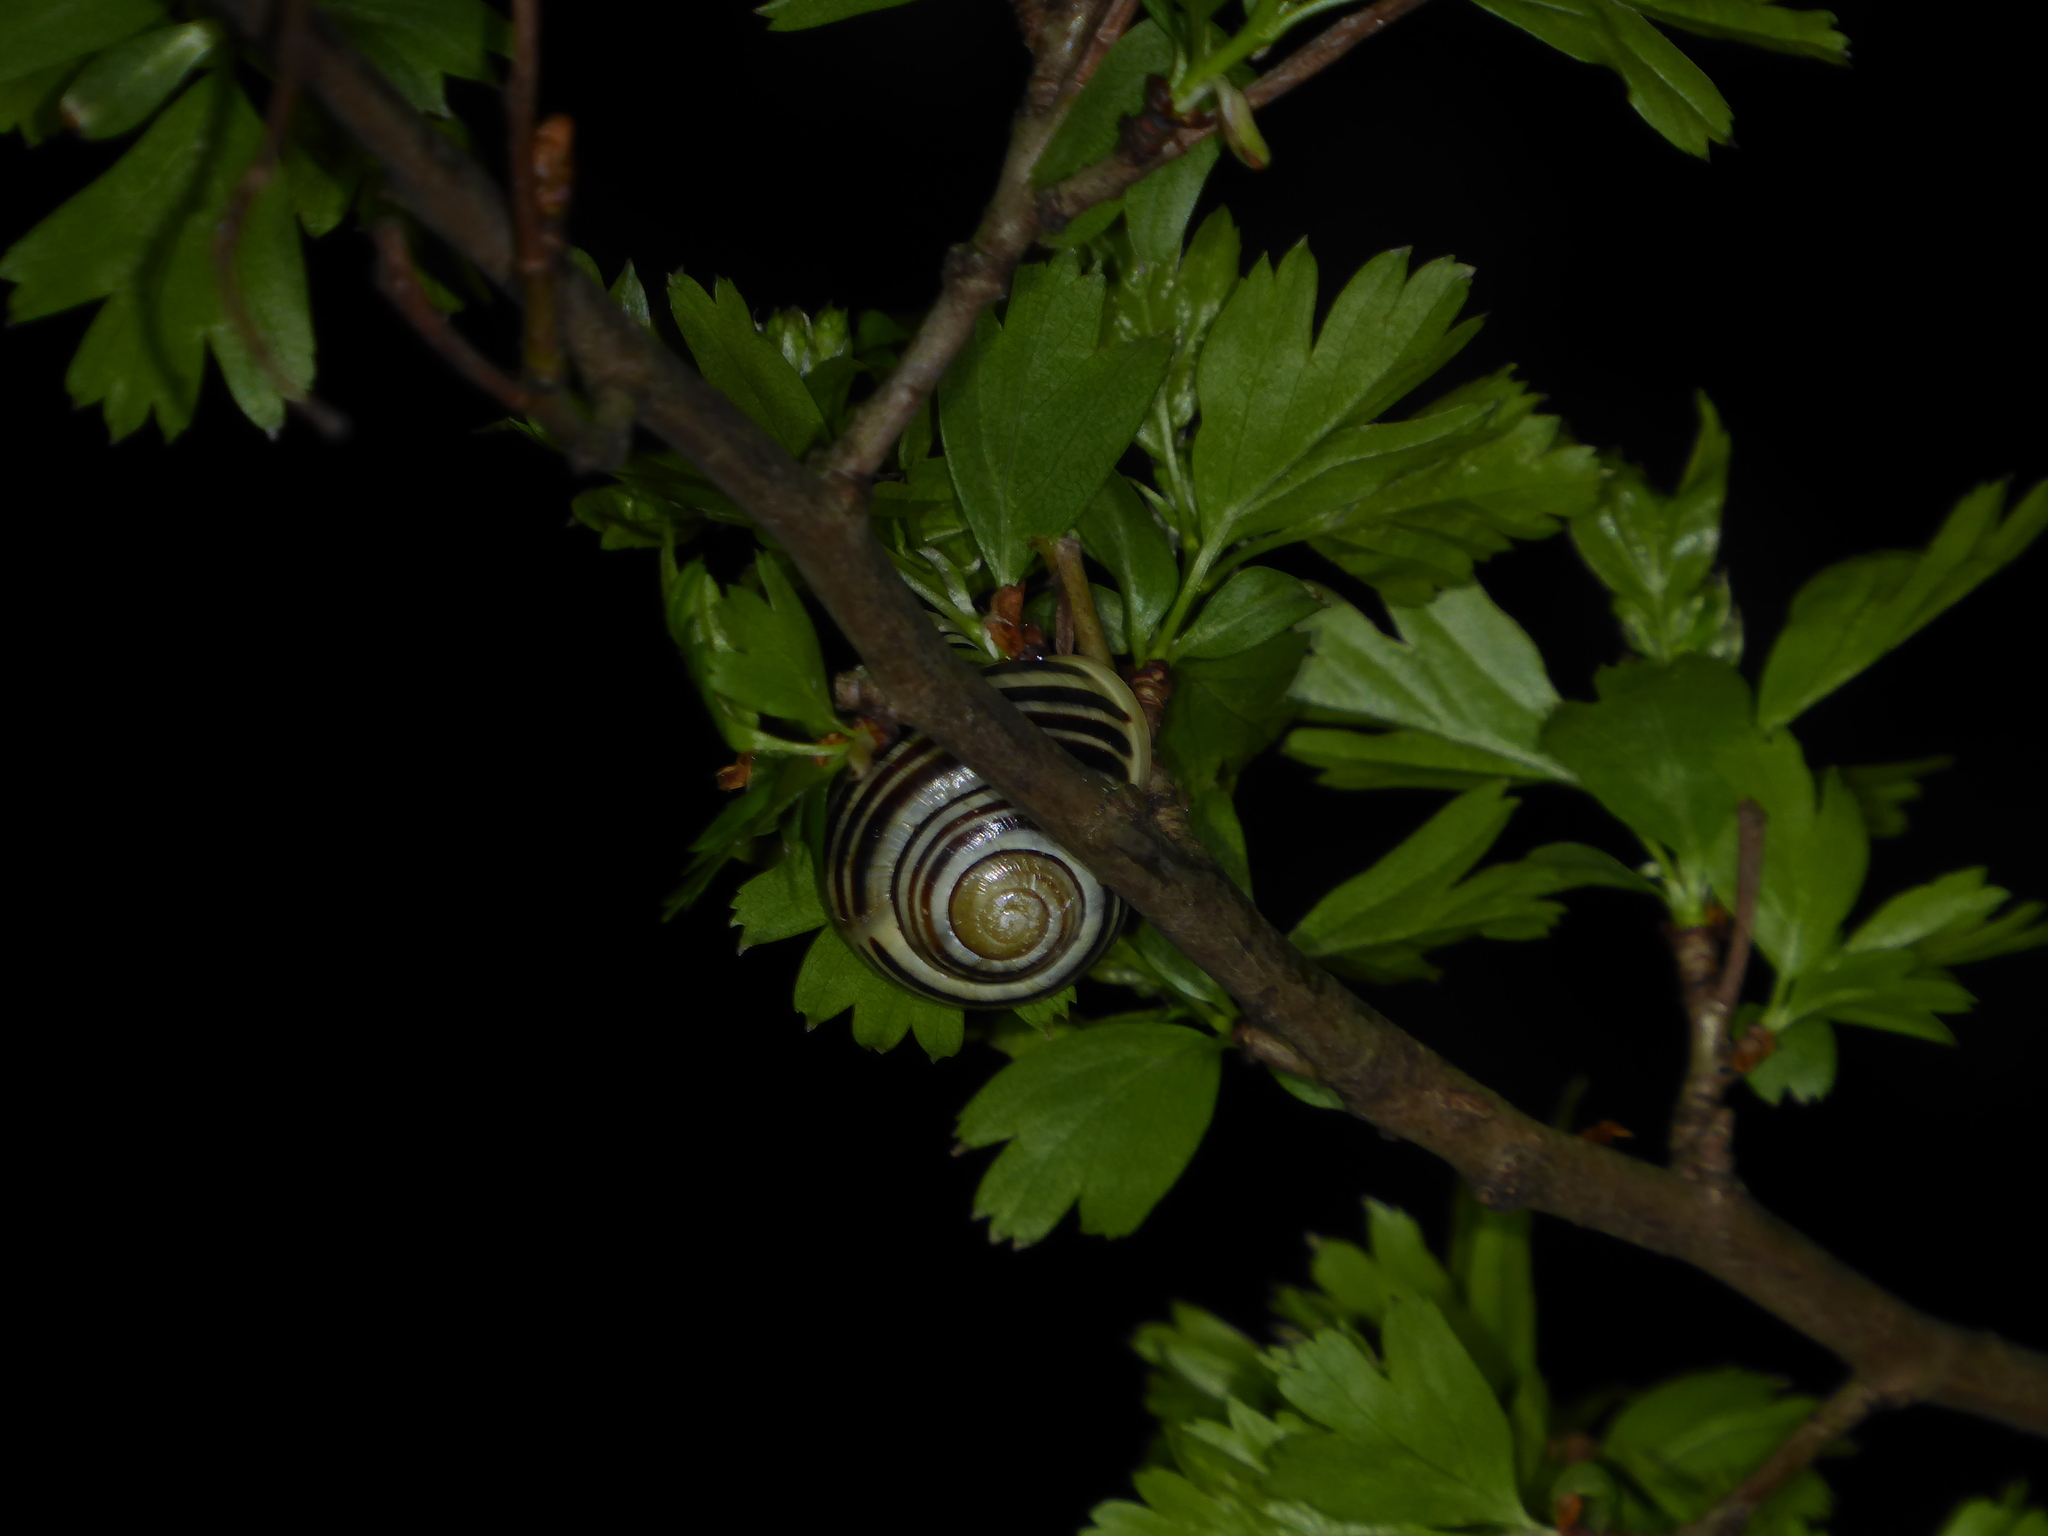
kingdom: Animalia
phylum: Mollusca
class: Gastropoda
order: Stylommatophora
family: Helicidae
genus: Cepaea
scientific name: Cepaea hortensis
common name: White-lip gardensnail
